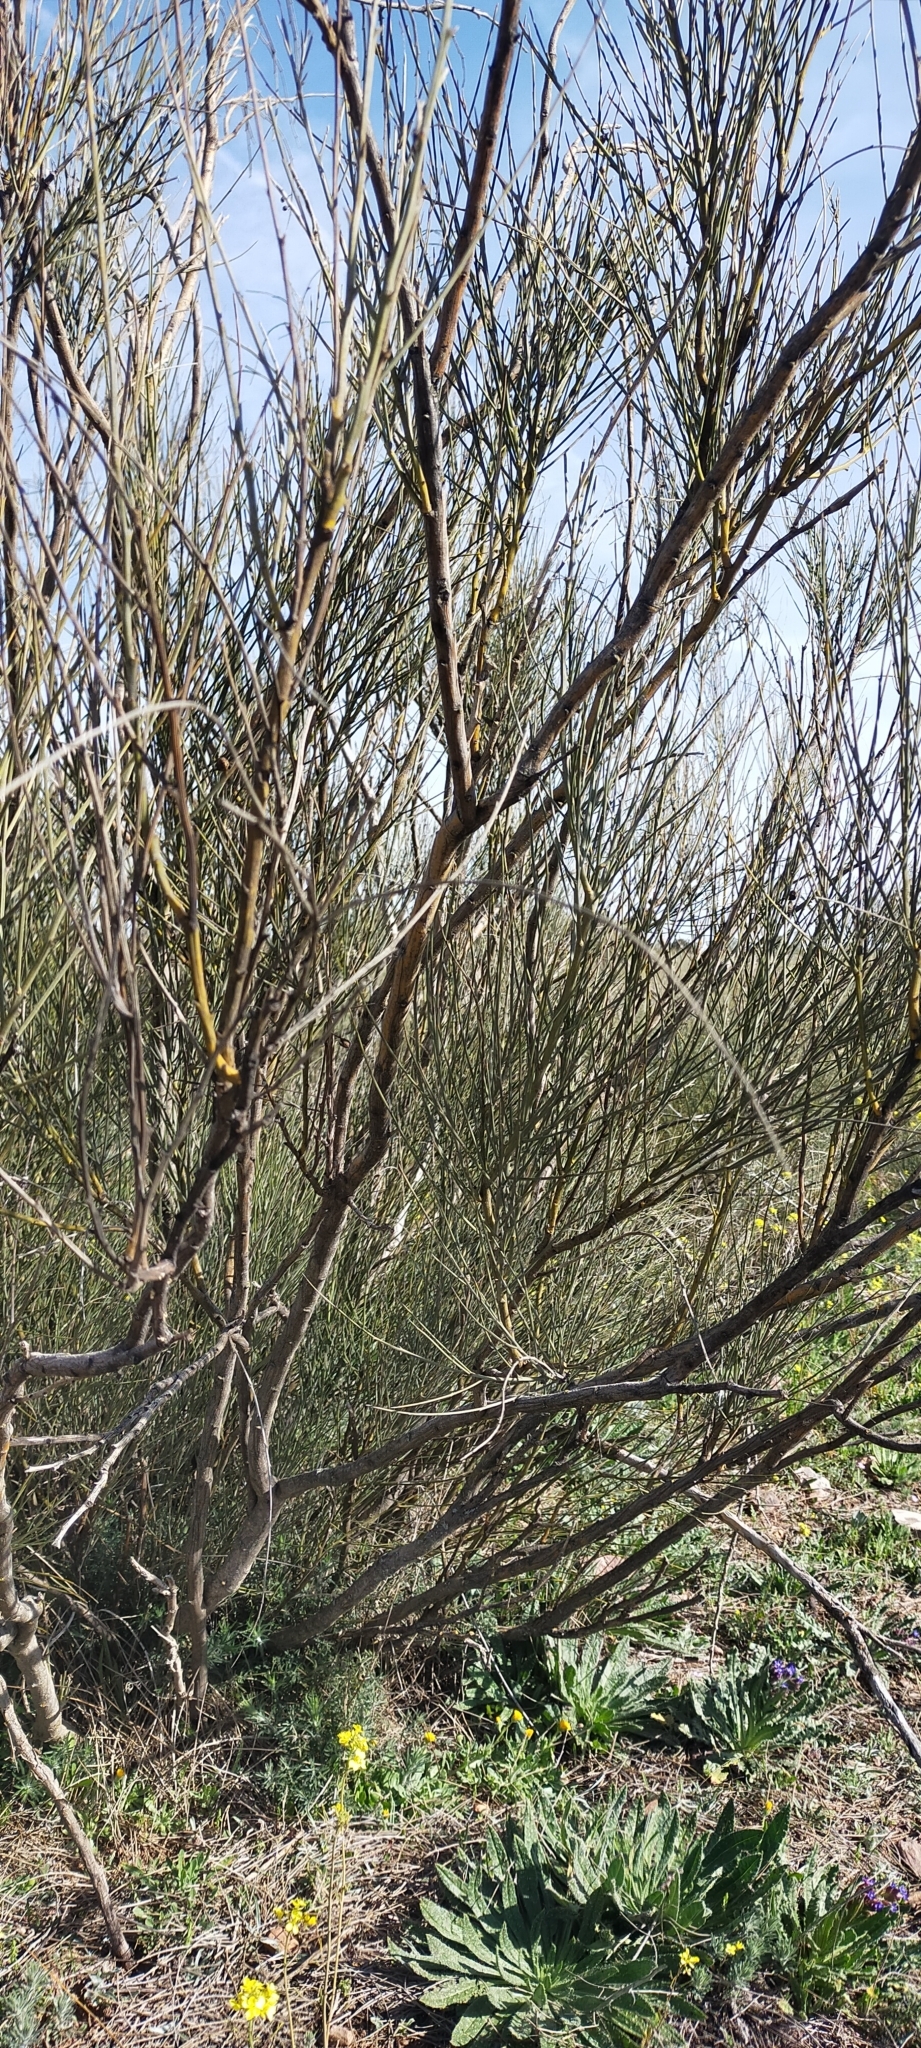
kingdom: Plantae
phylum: Tracheophyta
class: Magnoliopsida
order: Fabales
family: Fabaceae
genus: Retama
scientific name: Retama sphaerocarpa
